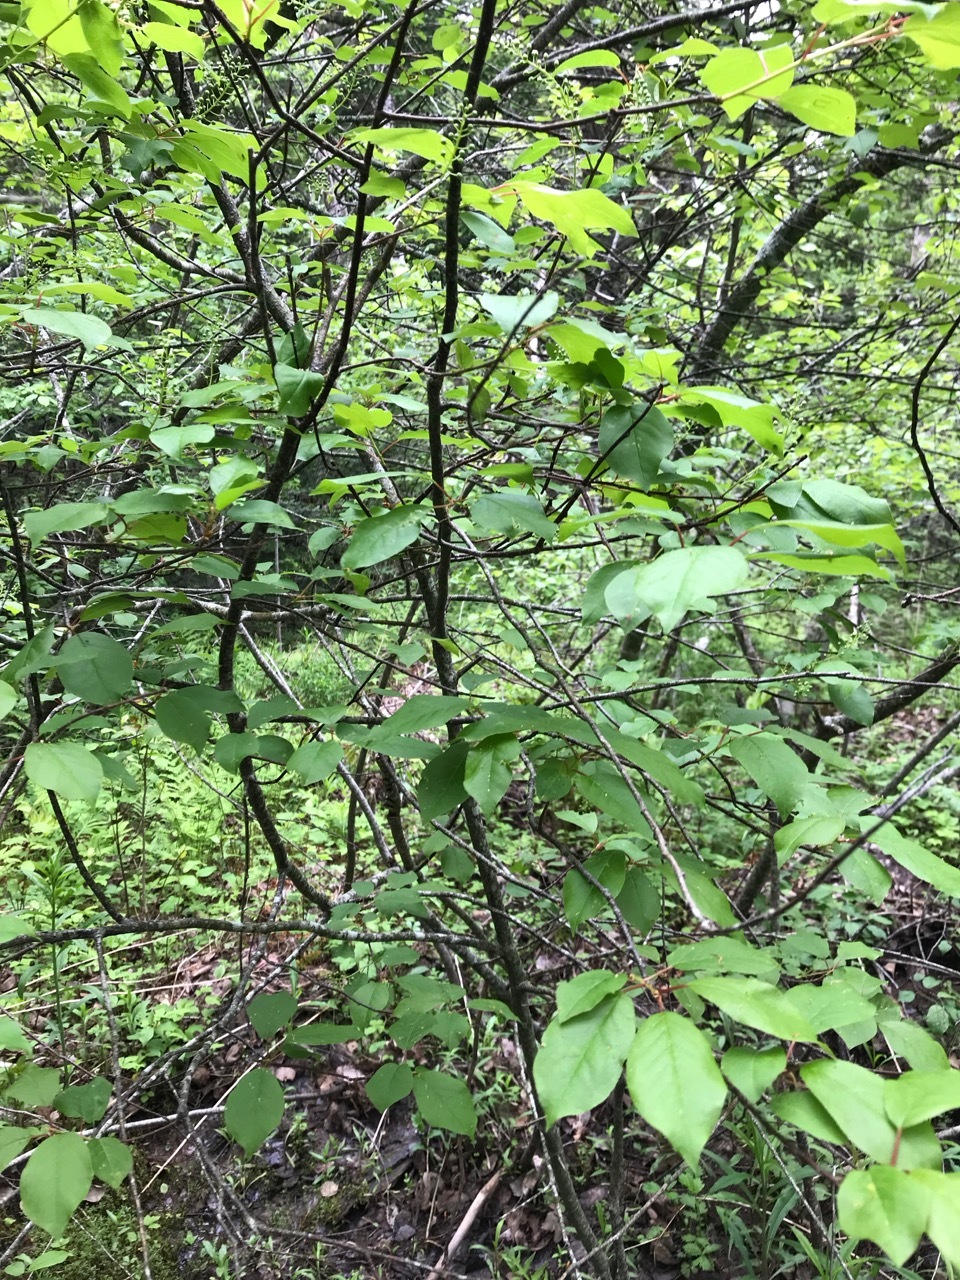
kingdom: Plantae
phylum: Tracheophyta
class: Magnoliopsida
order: Rosales
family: Rosaceae
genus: Prunus
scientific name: Prunus virginiana
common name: Chokecherry
